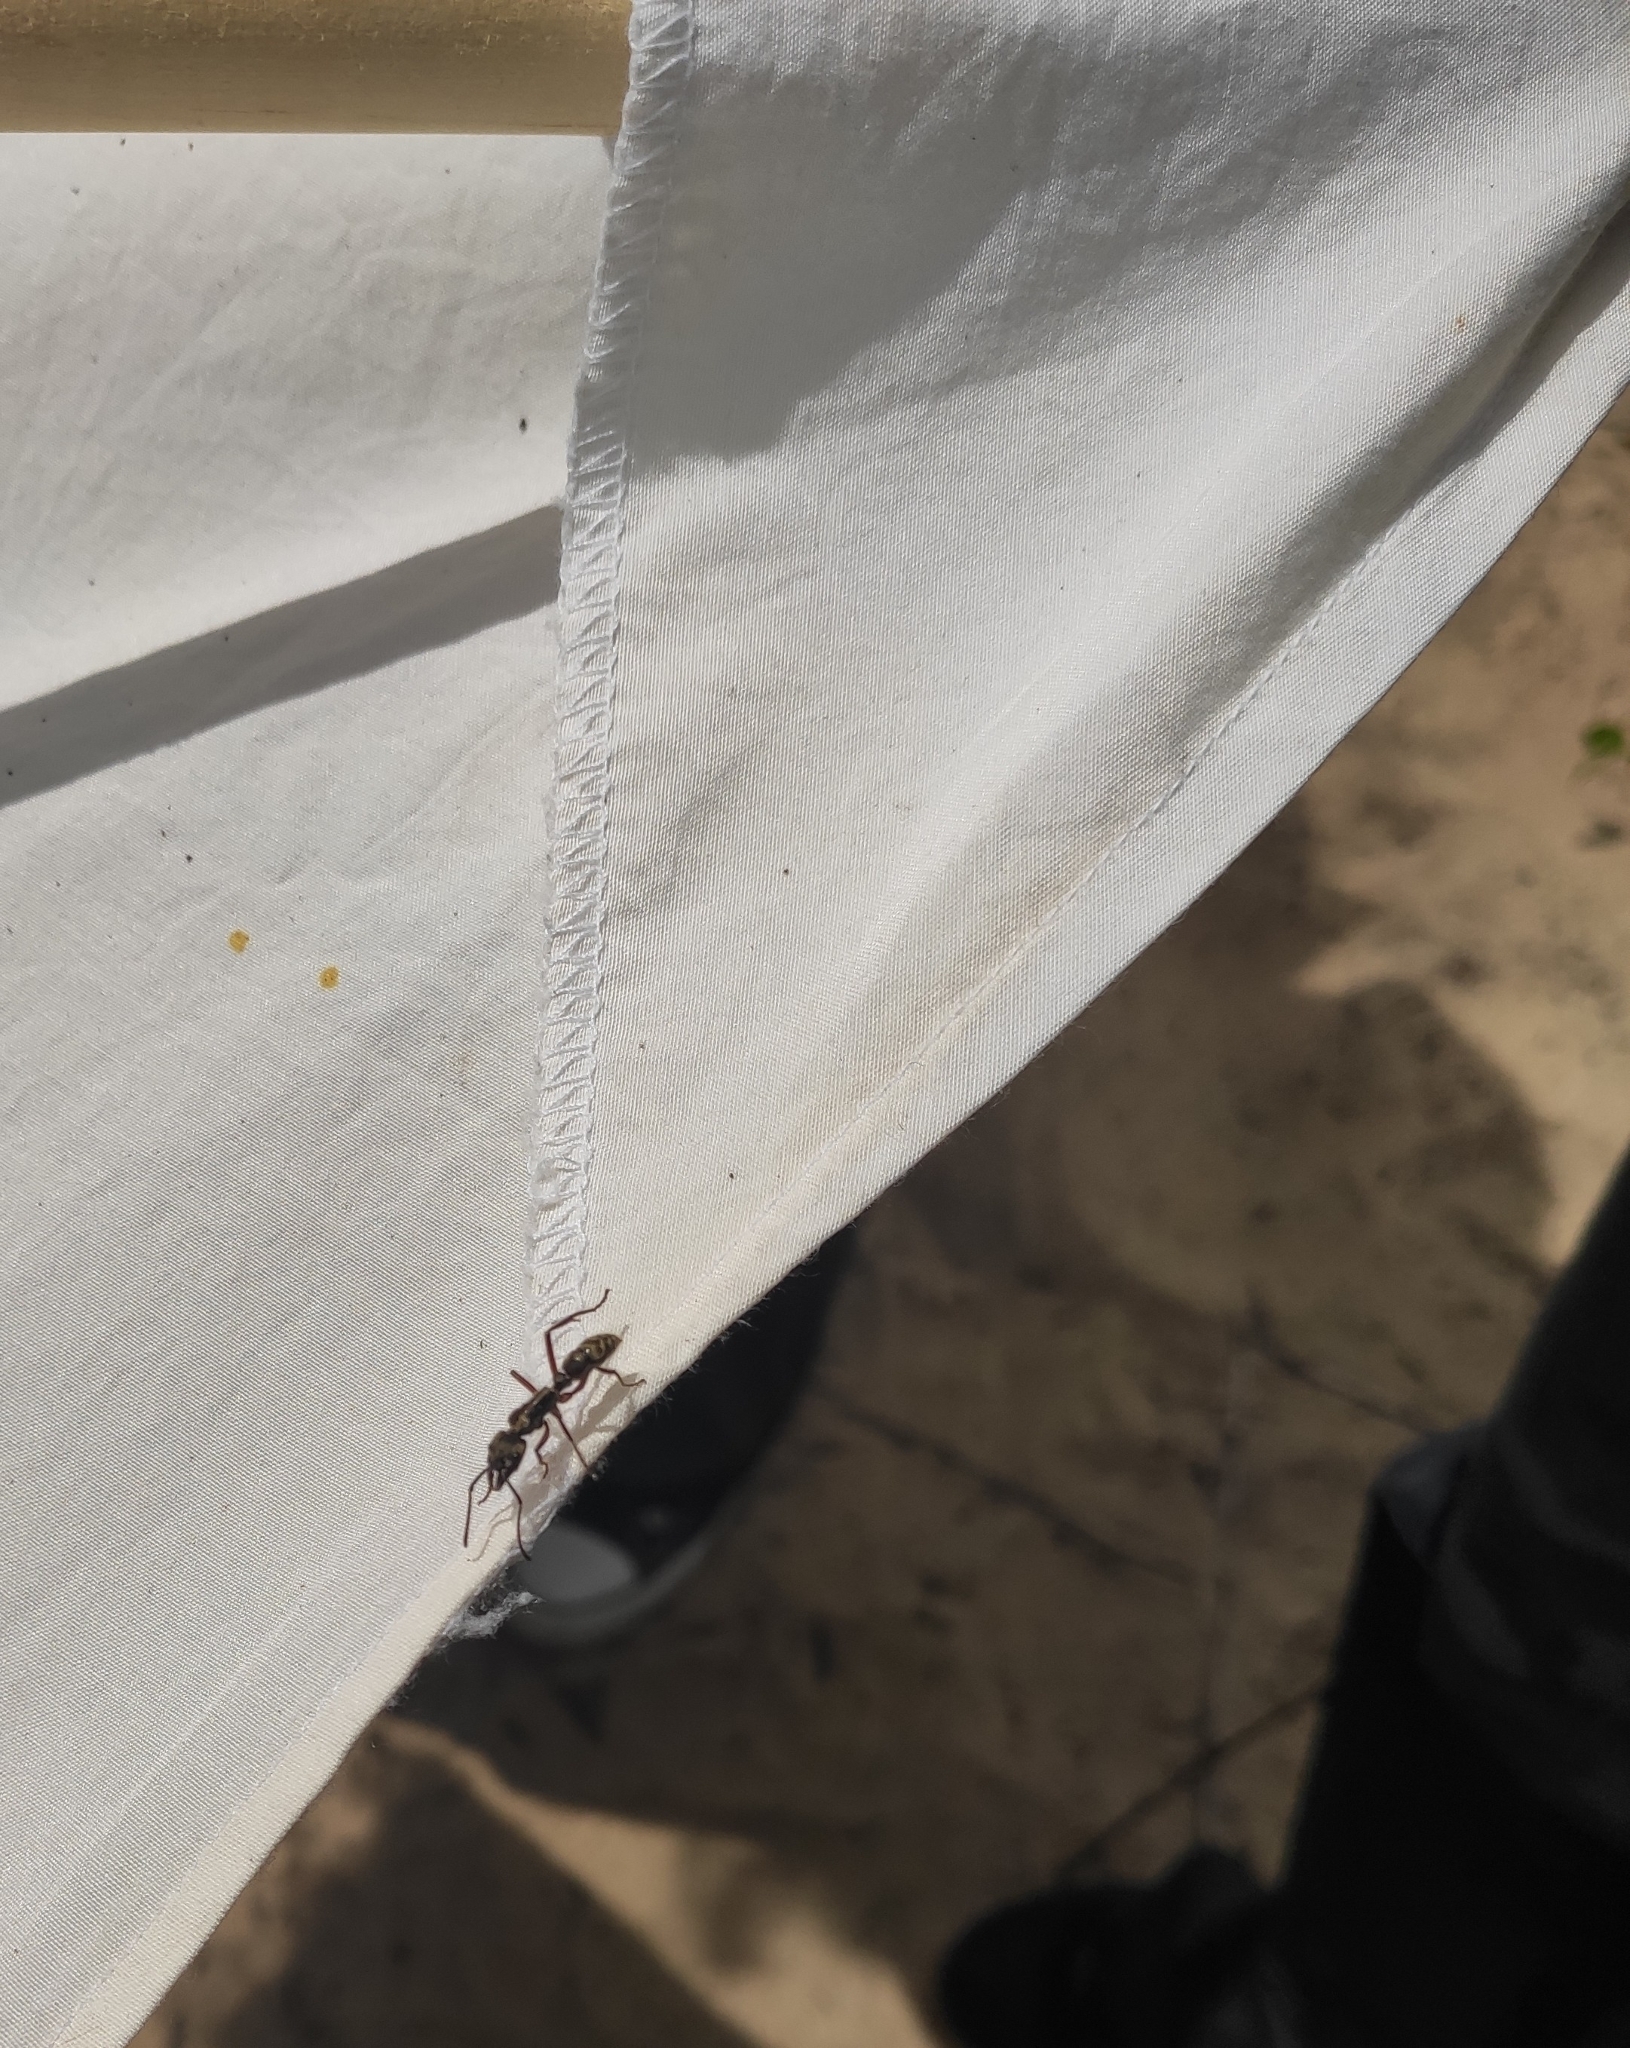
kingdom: Animalia
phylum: Arthropoda
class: Insecta
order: Hymenoptera
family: Formicidae
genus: Neoponera
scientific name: Neoponera
